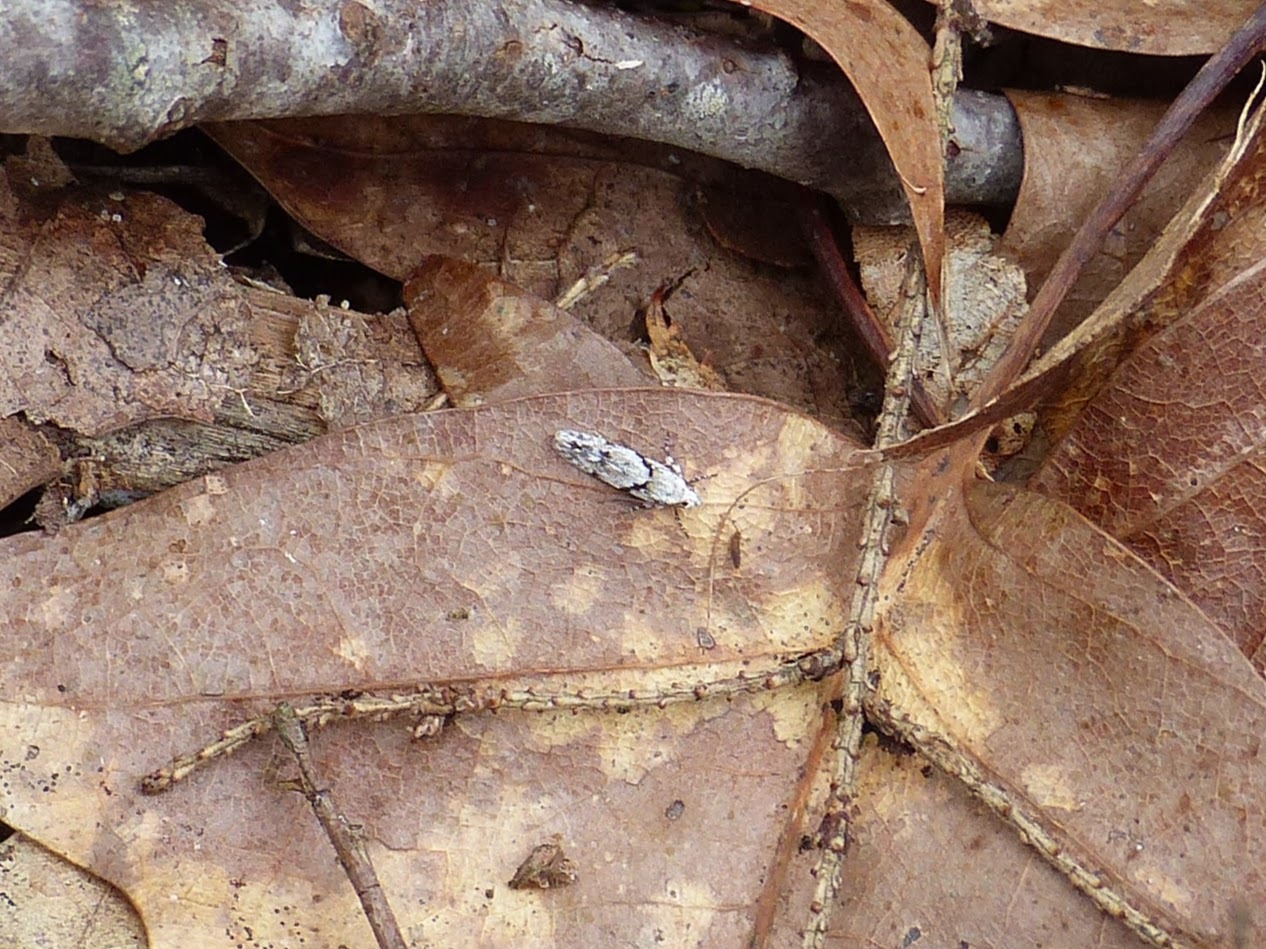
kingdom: Animalia
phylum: Arthropoda
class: Insecta
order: Lepidoptera
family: Gelechiidae
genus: Arogalea
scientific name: Arogalea cristifasciella
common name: White stripe-backed moth
